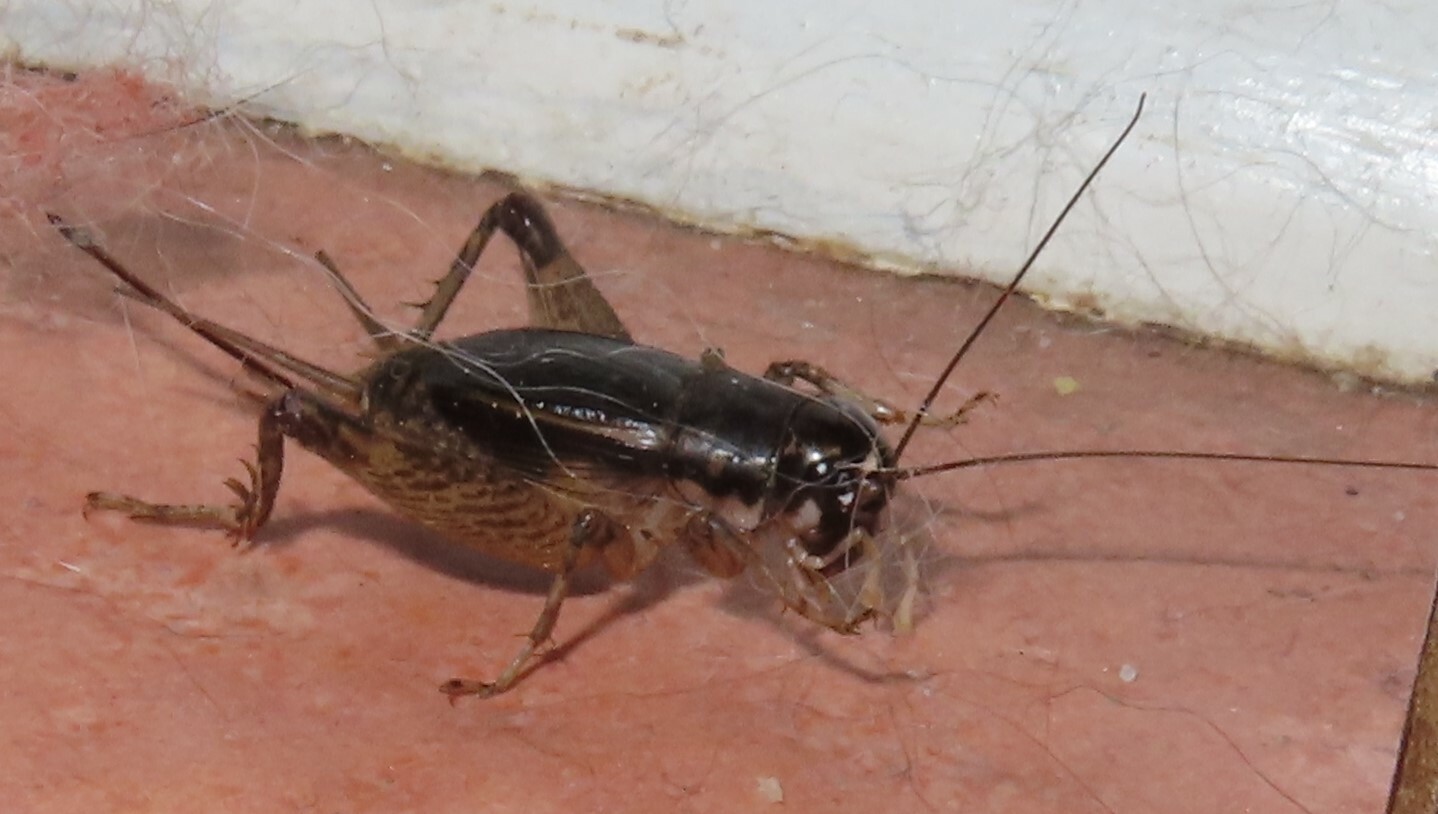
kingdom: Animalia
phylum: Arthropoda
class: Insecta
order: Orthoptera
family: Gryllidae
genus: Velarifictorus
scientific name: Velarifictorus micado
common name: Japanese burrowing cricket
